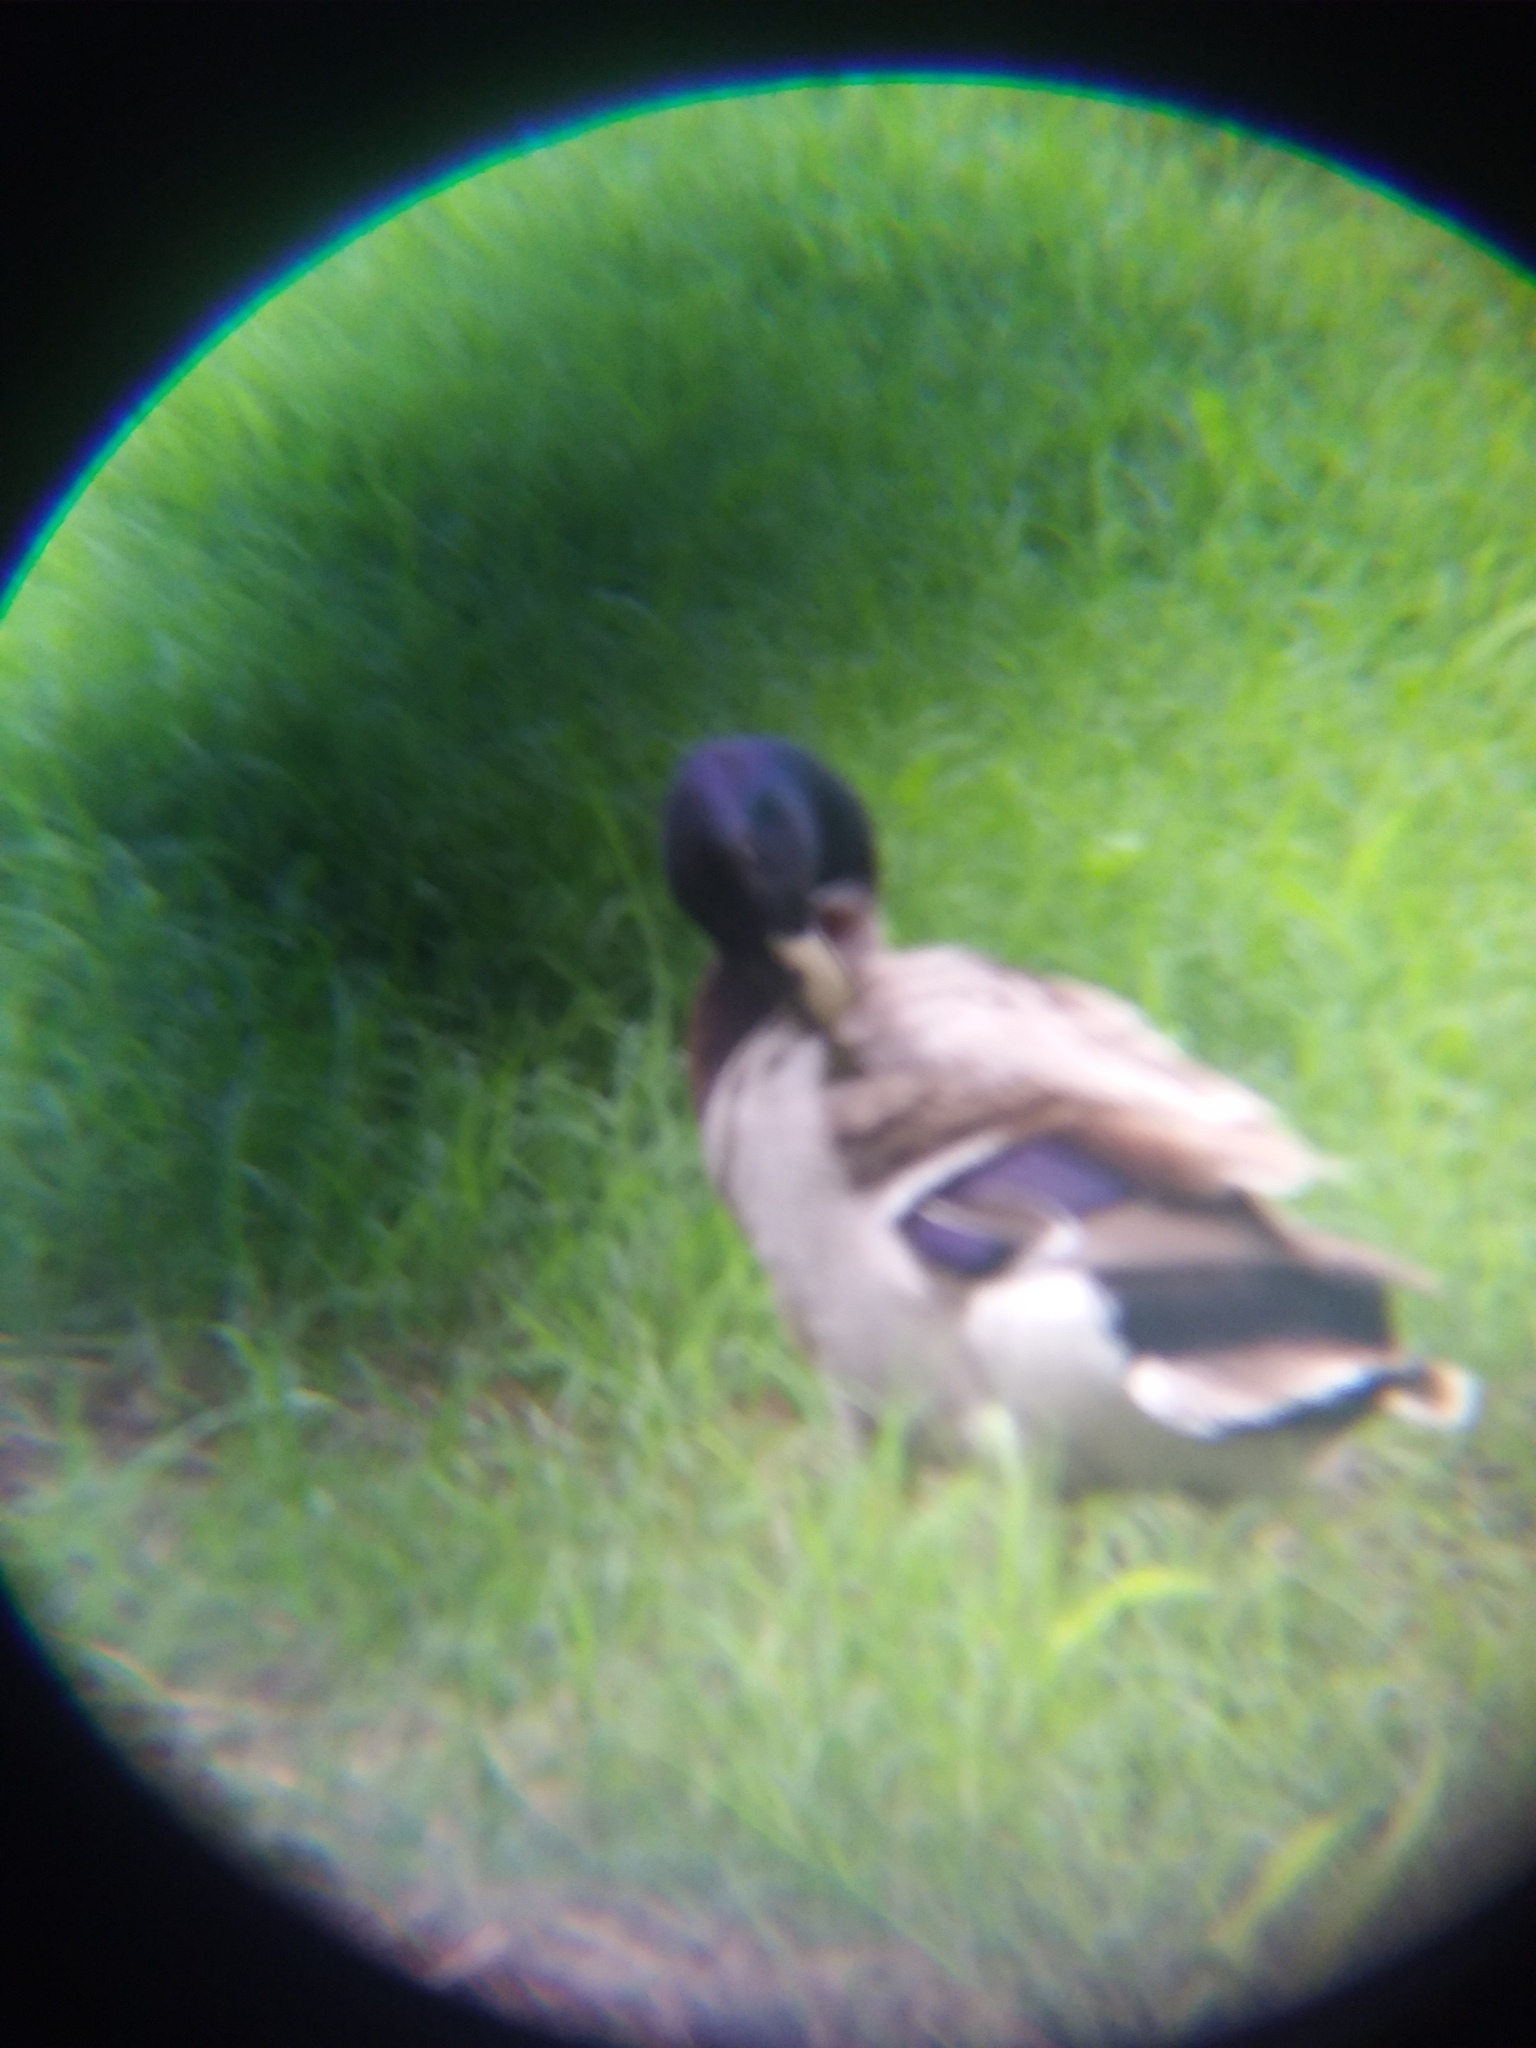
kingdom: Animalia
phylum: Chordata
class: Aves
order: Anseriformes
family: Anatidae
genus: Anas
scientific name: Anas platyrhynchos
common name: Mallard
